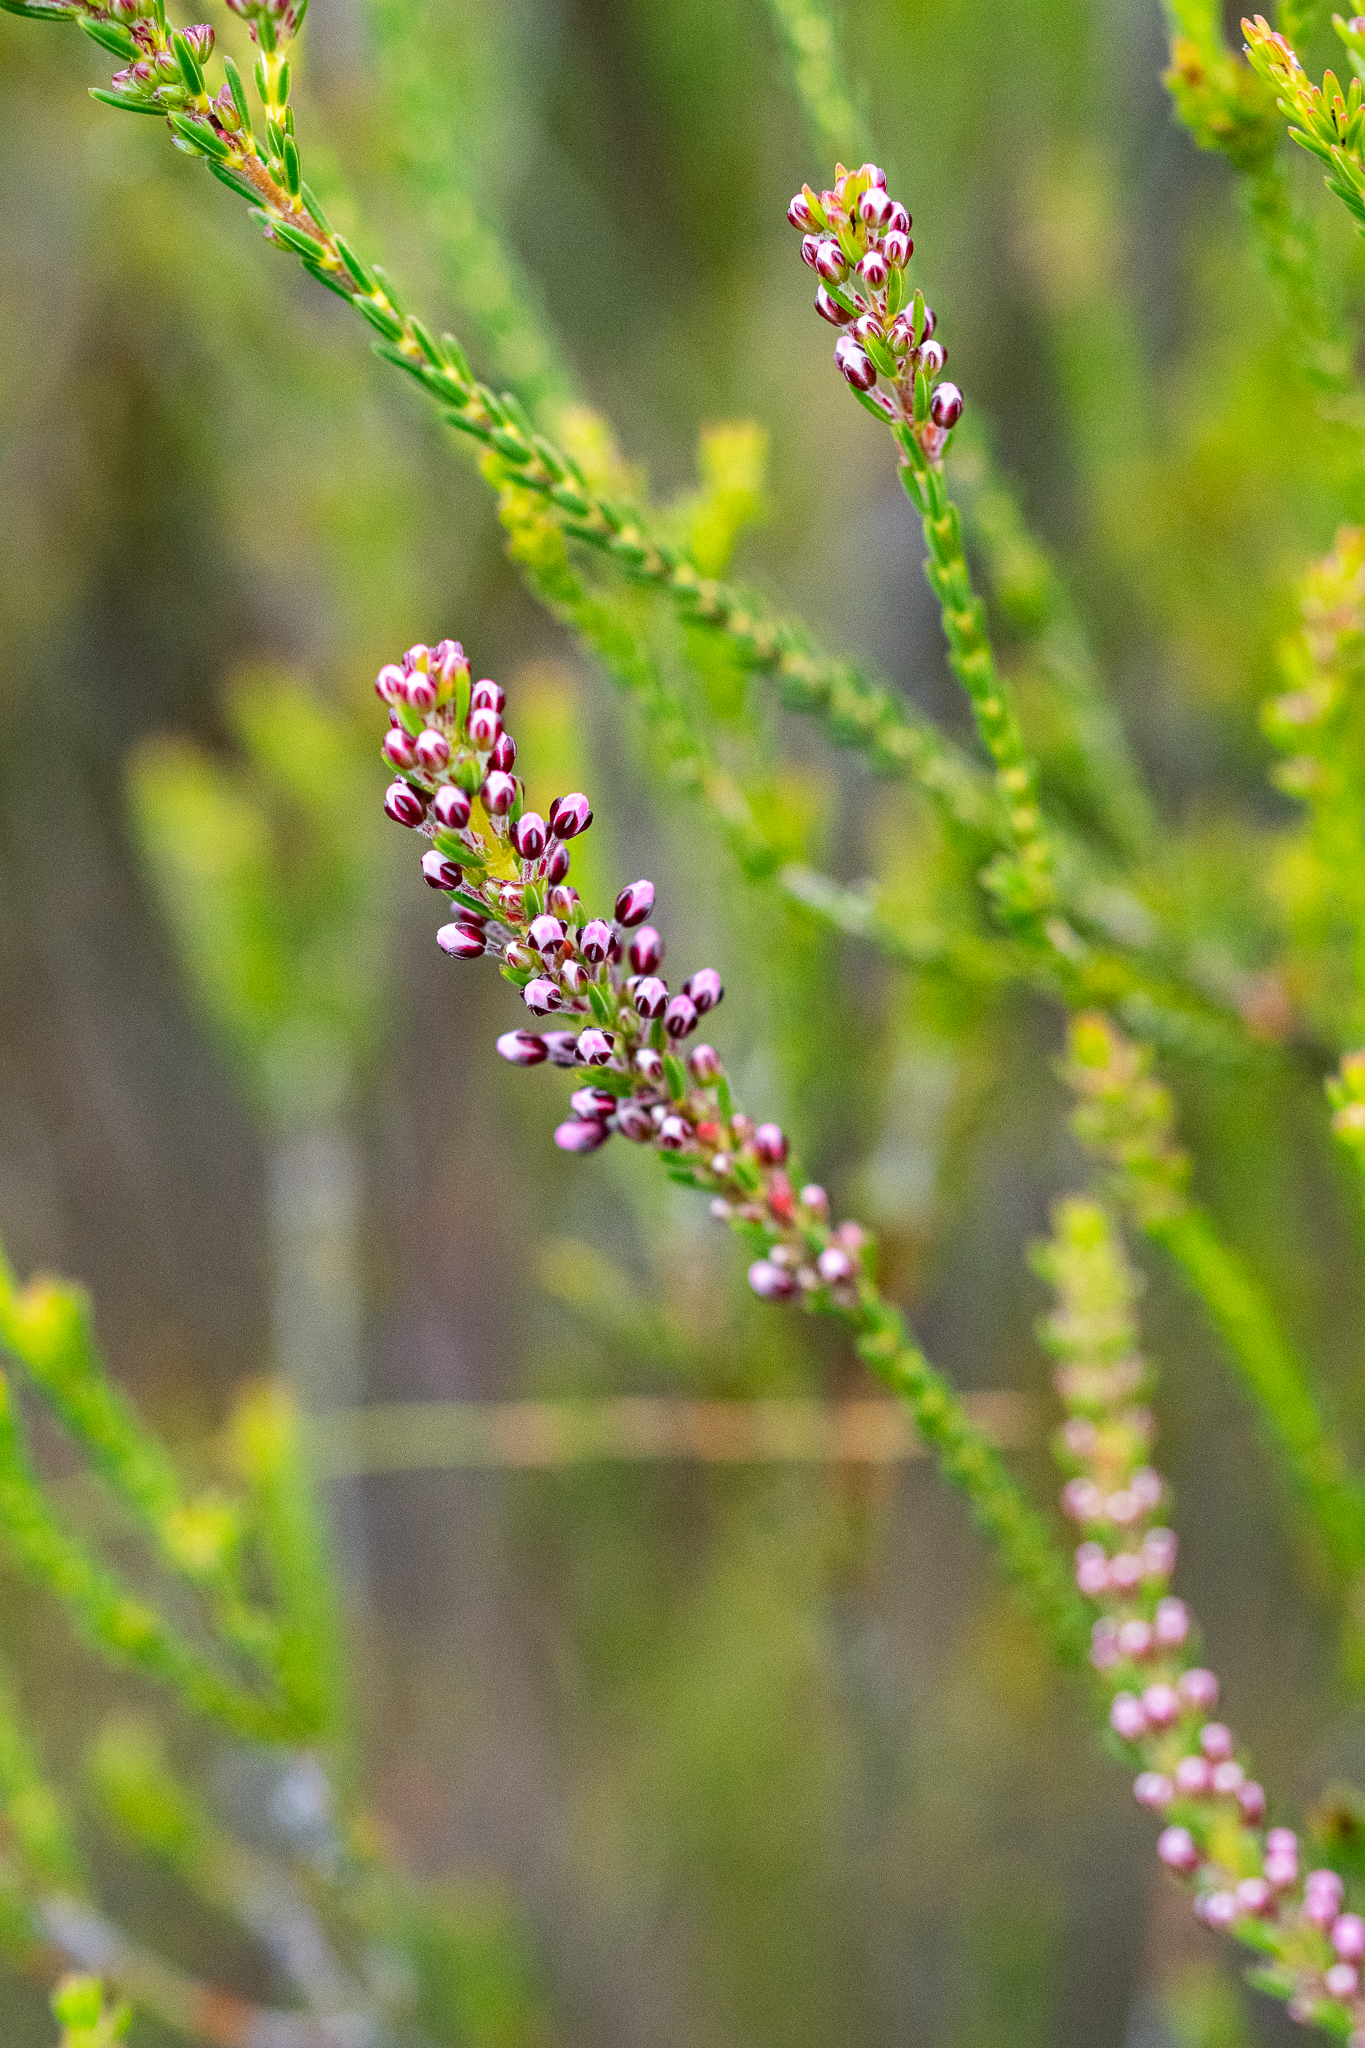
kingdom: Plantae
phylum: Tracheophyta
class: Magnoliopsida
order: Ericales
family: Ericaceae
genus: Erica
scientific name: Erica pulchella
